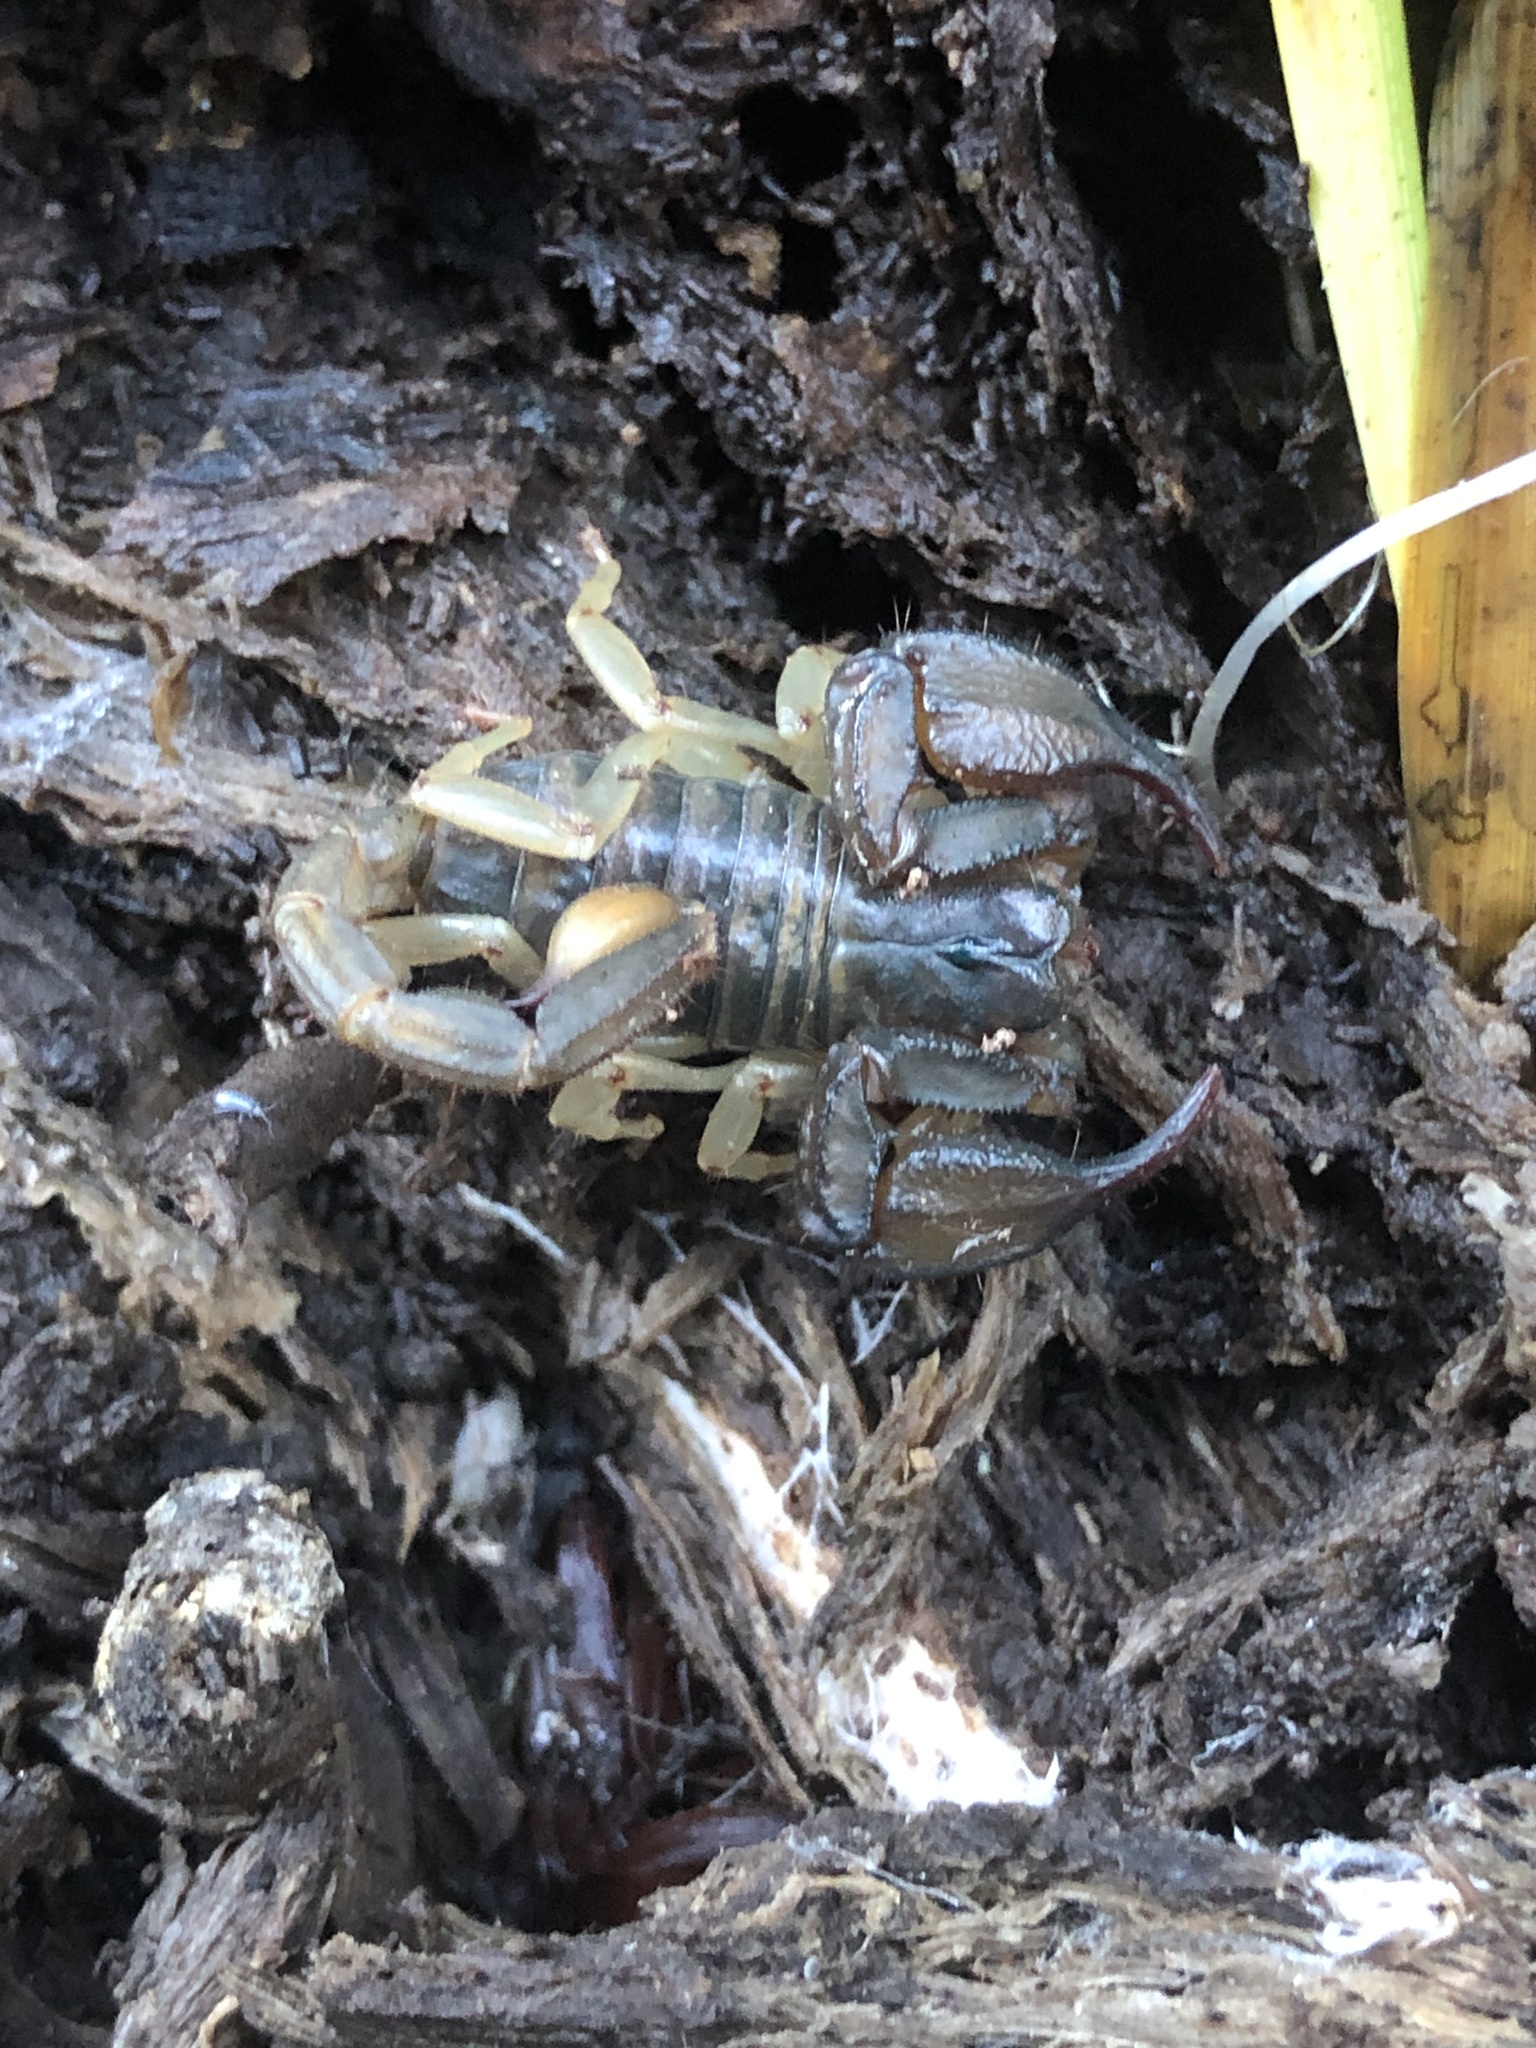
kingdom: Animalia
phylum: Arthropoda
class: Arachnida
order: Scorpiones
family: Chactidae
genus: Uroctonus
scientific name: Uroctonus mordax
